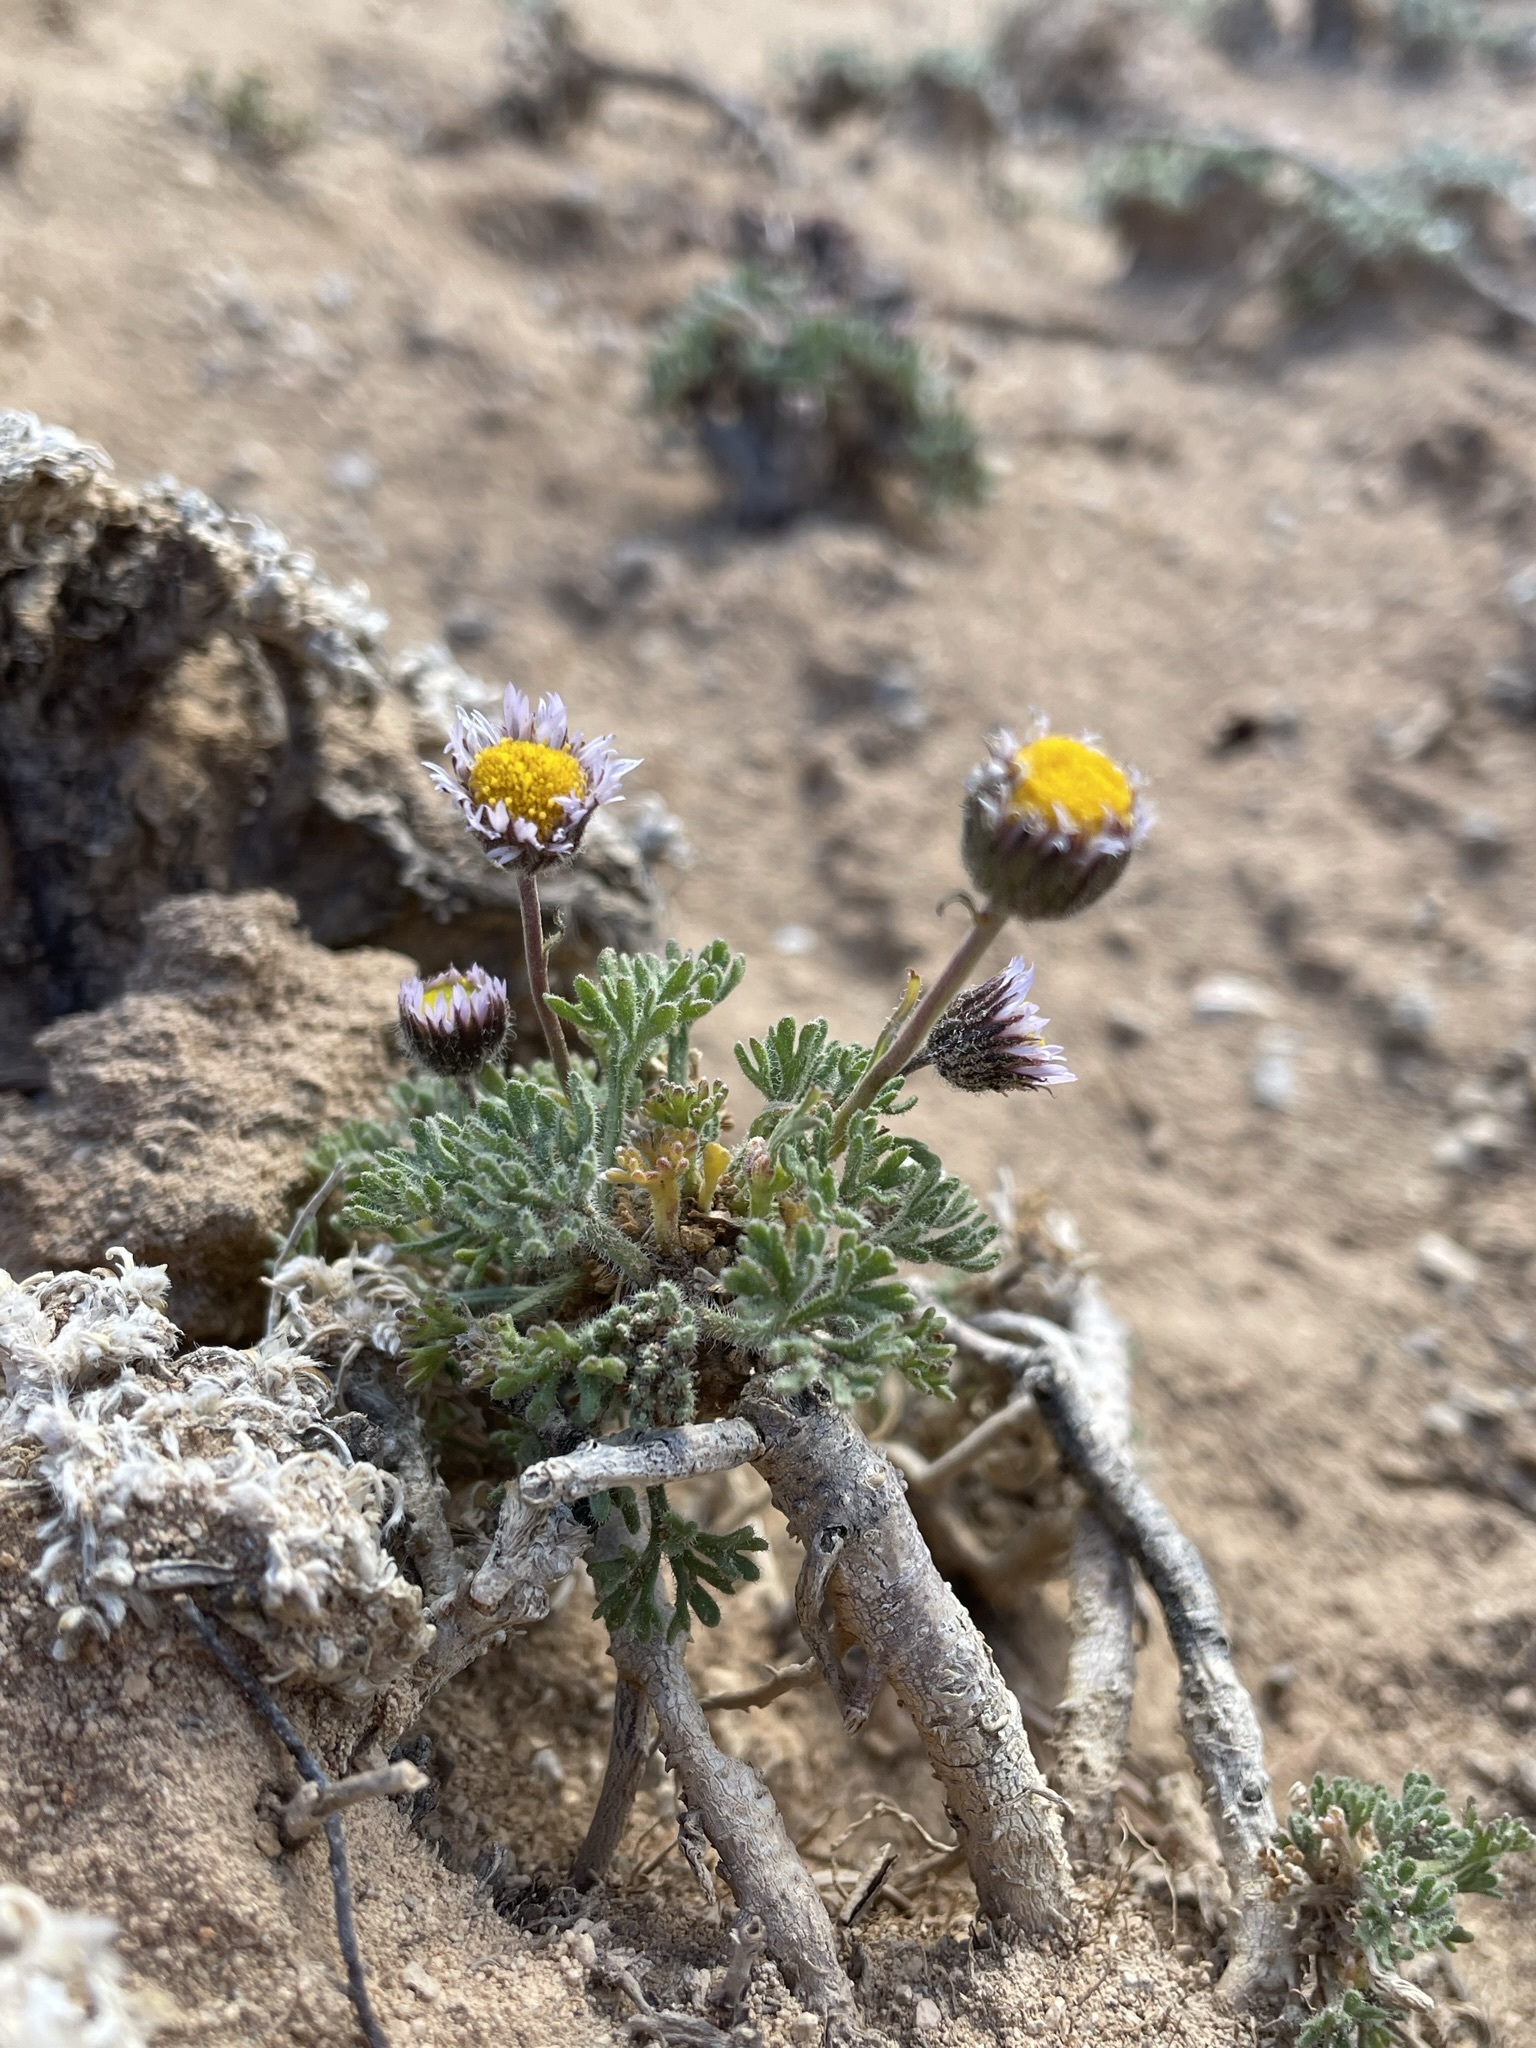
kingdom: Plantae
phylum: Tracheophyta
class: Magnoliopsida
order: Asterales
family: Asteraceae
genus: Erigeron
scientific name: Erigeron compositus
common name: Dwarf mountain fleabane
